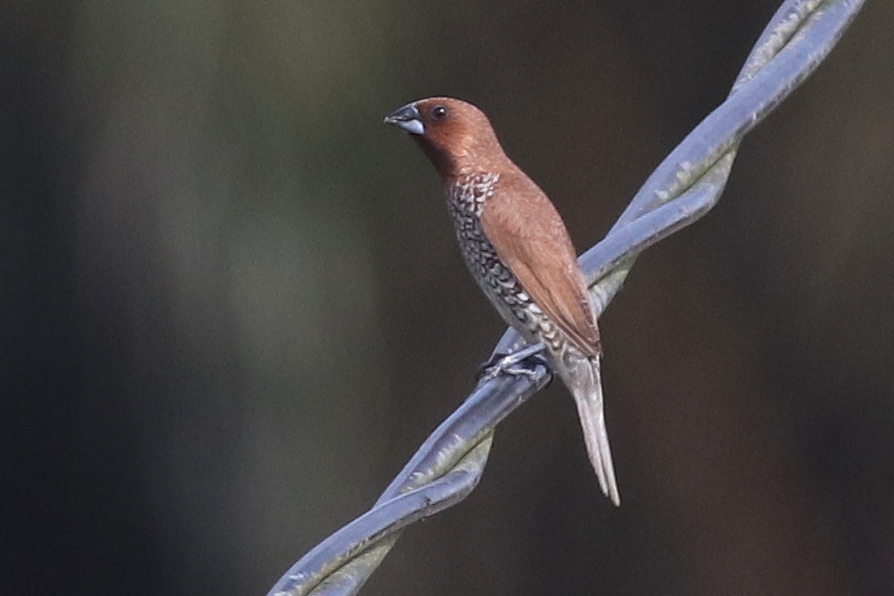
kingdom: Animalia
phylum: Chordata
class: Aves
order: Passeriformes
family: Estrildidae
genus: Lonchura
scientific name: Lonchura punctulata
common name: Scaly-breasted munia
